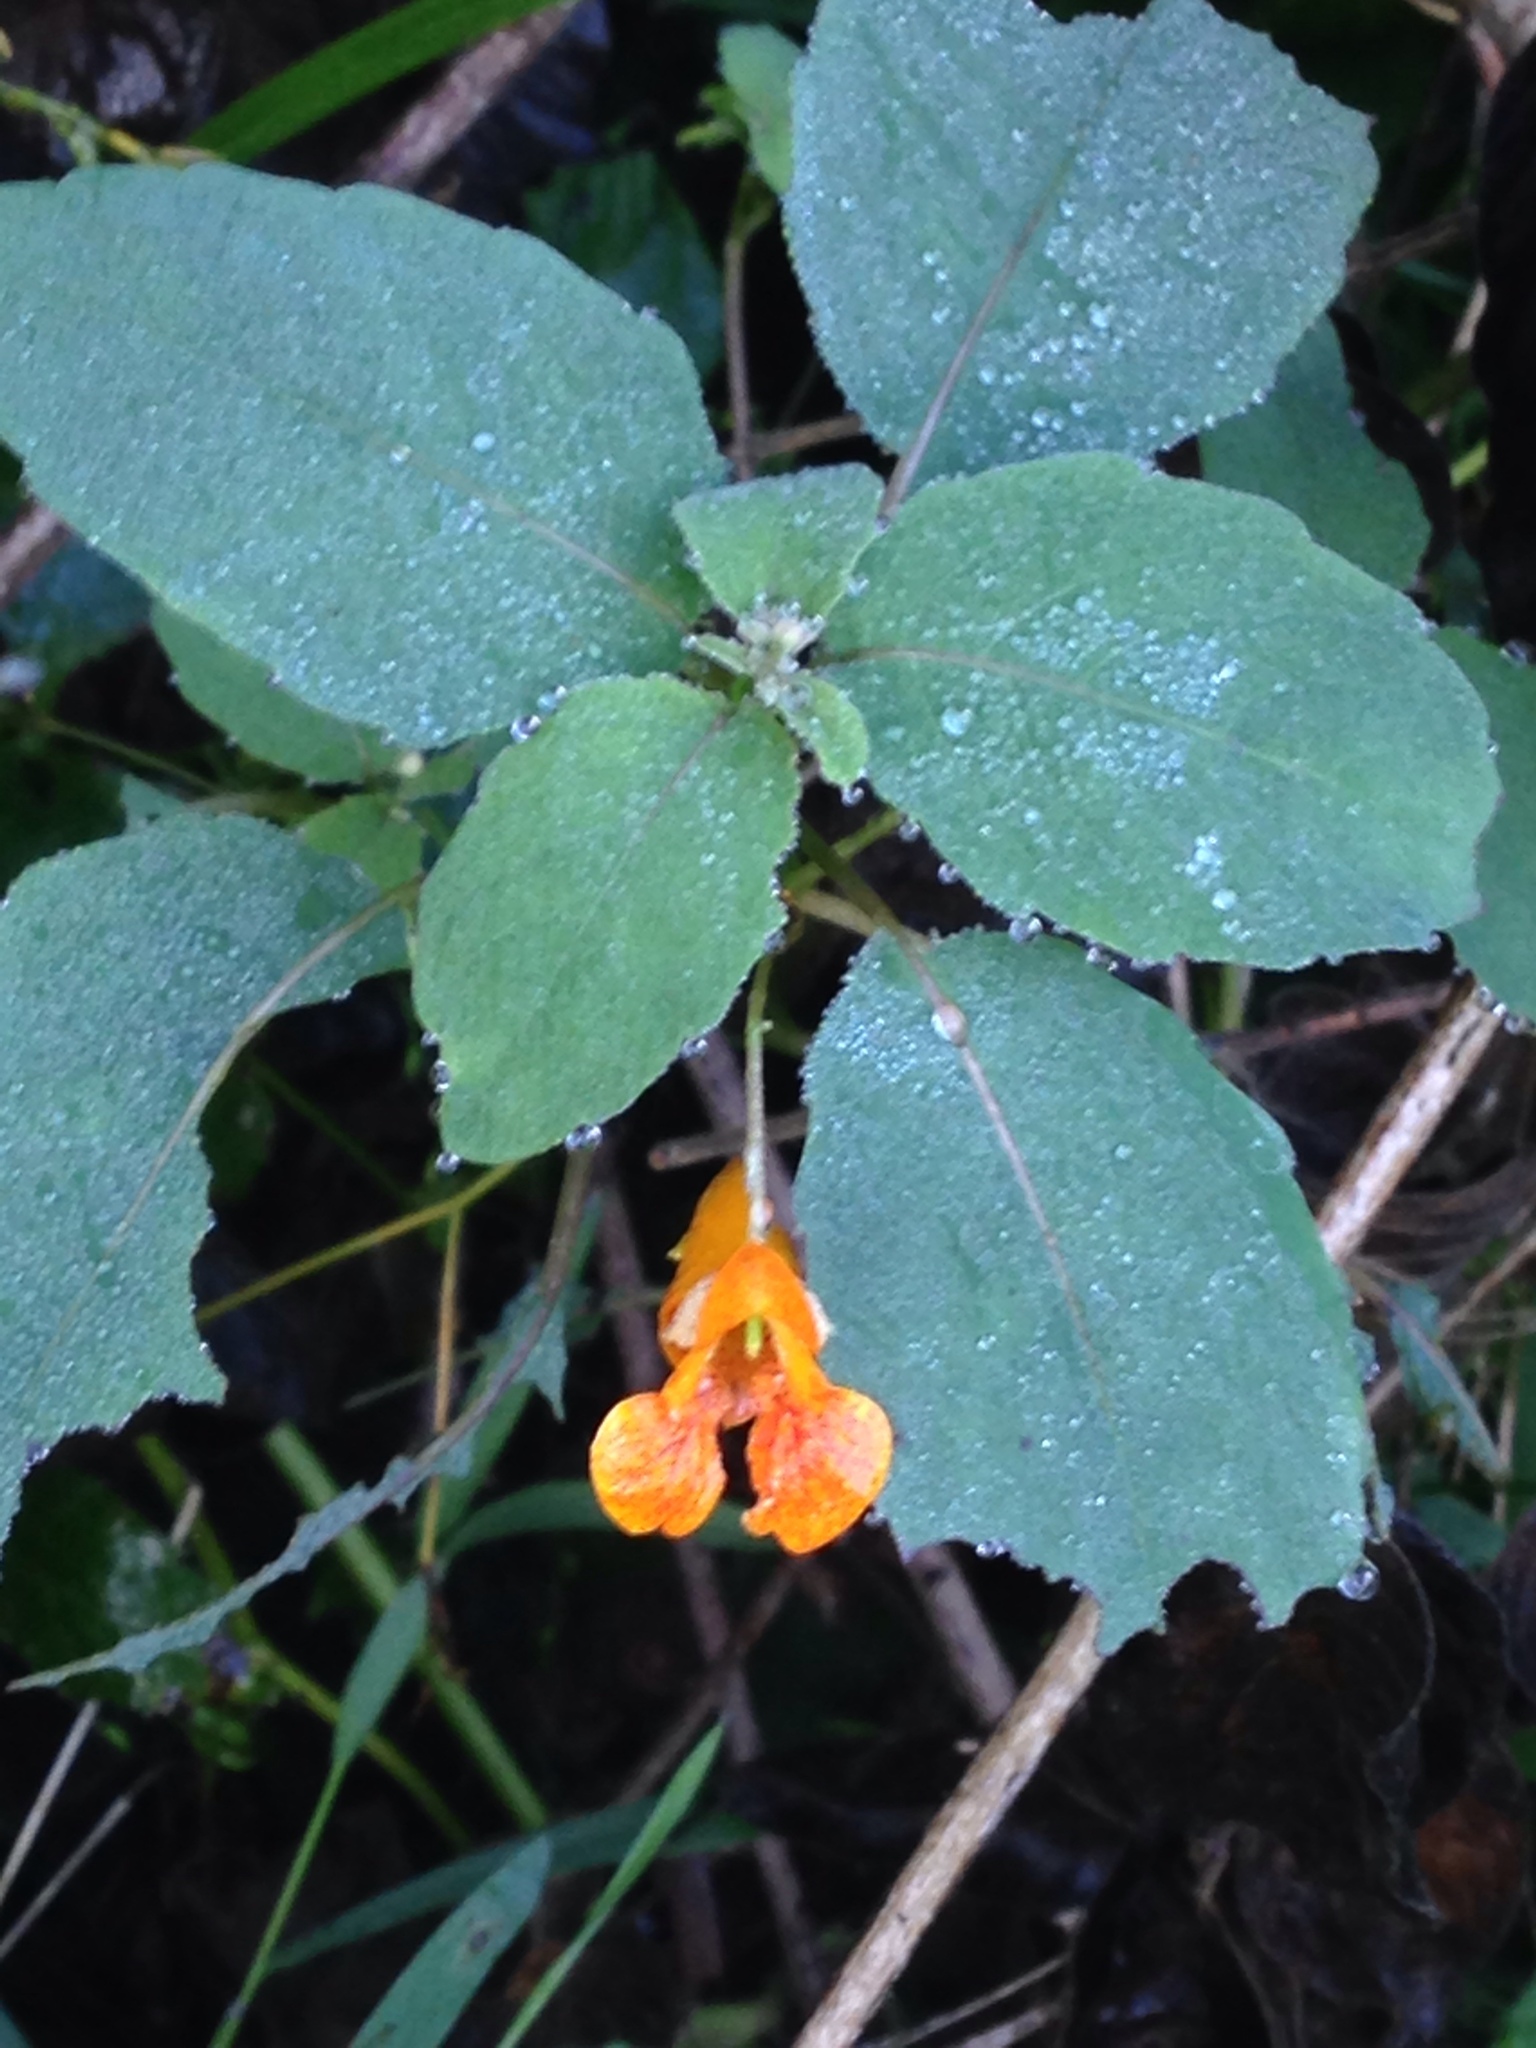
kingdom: Plantae
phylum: Tracheophyta
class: Magnoliopsida
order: Ericales
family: Balsaminaceae
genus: Impatiens
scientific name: Impatiens capensis
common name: Orange balsam
